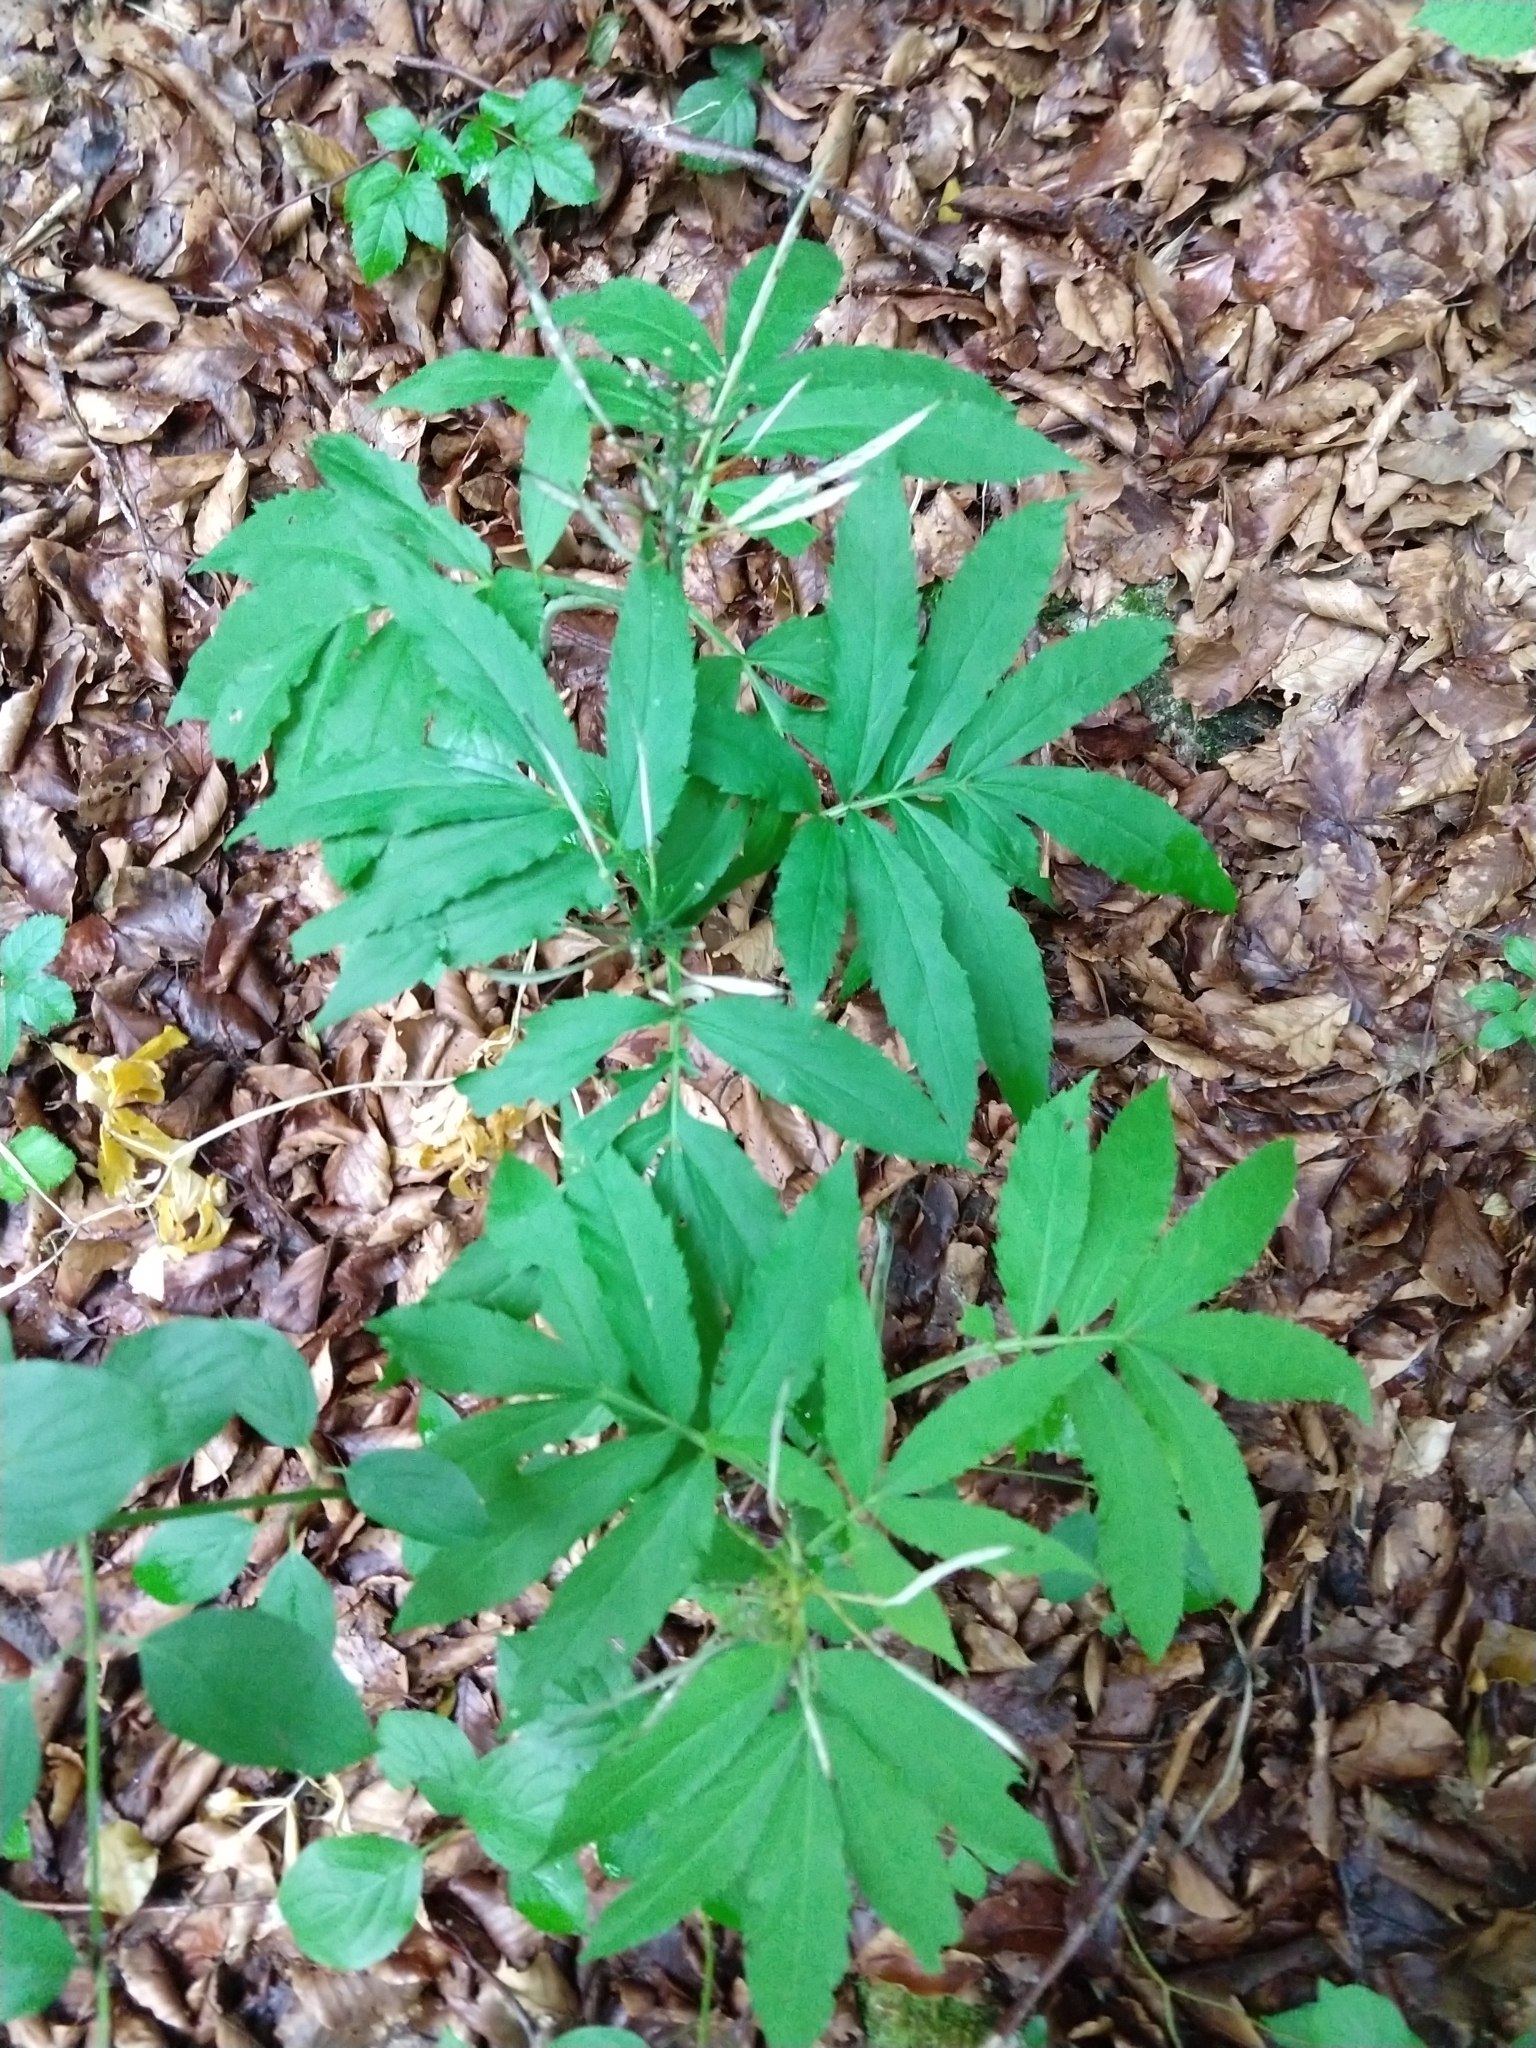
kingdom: Plantae
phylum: Tracheophyta
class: Magnoliopsida
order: Brassicales
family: Brassicaceae
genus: Cardamine
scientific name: Cardamine heptaphylla
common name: Pinnate coralroot
